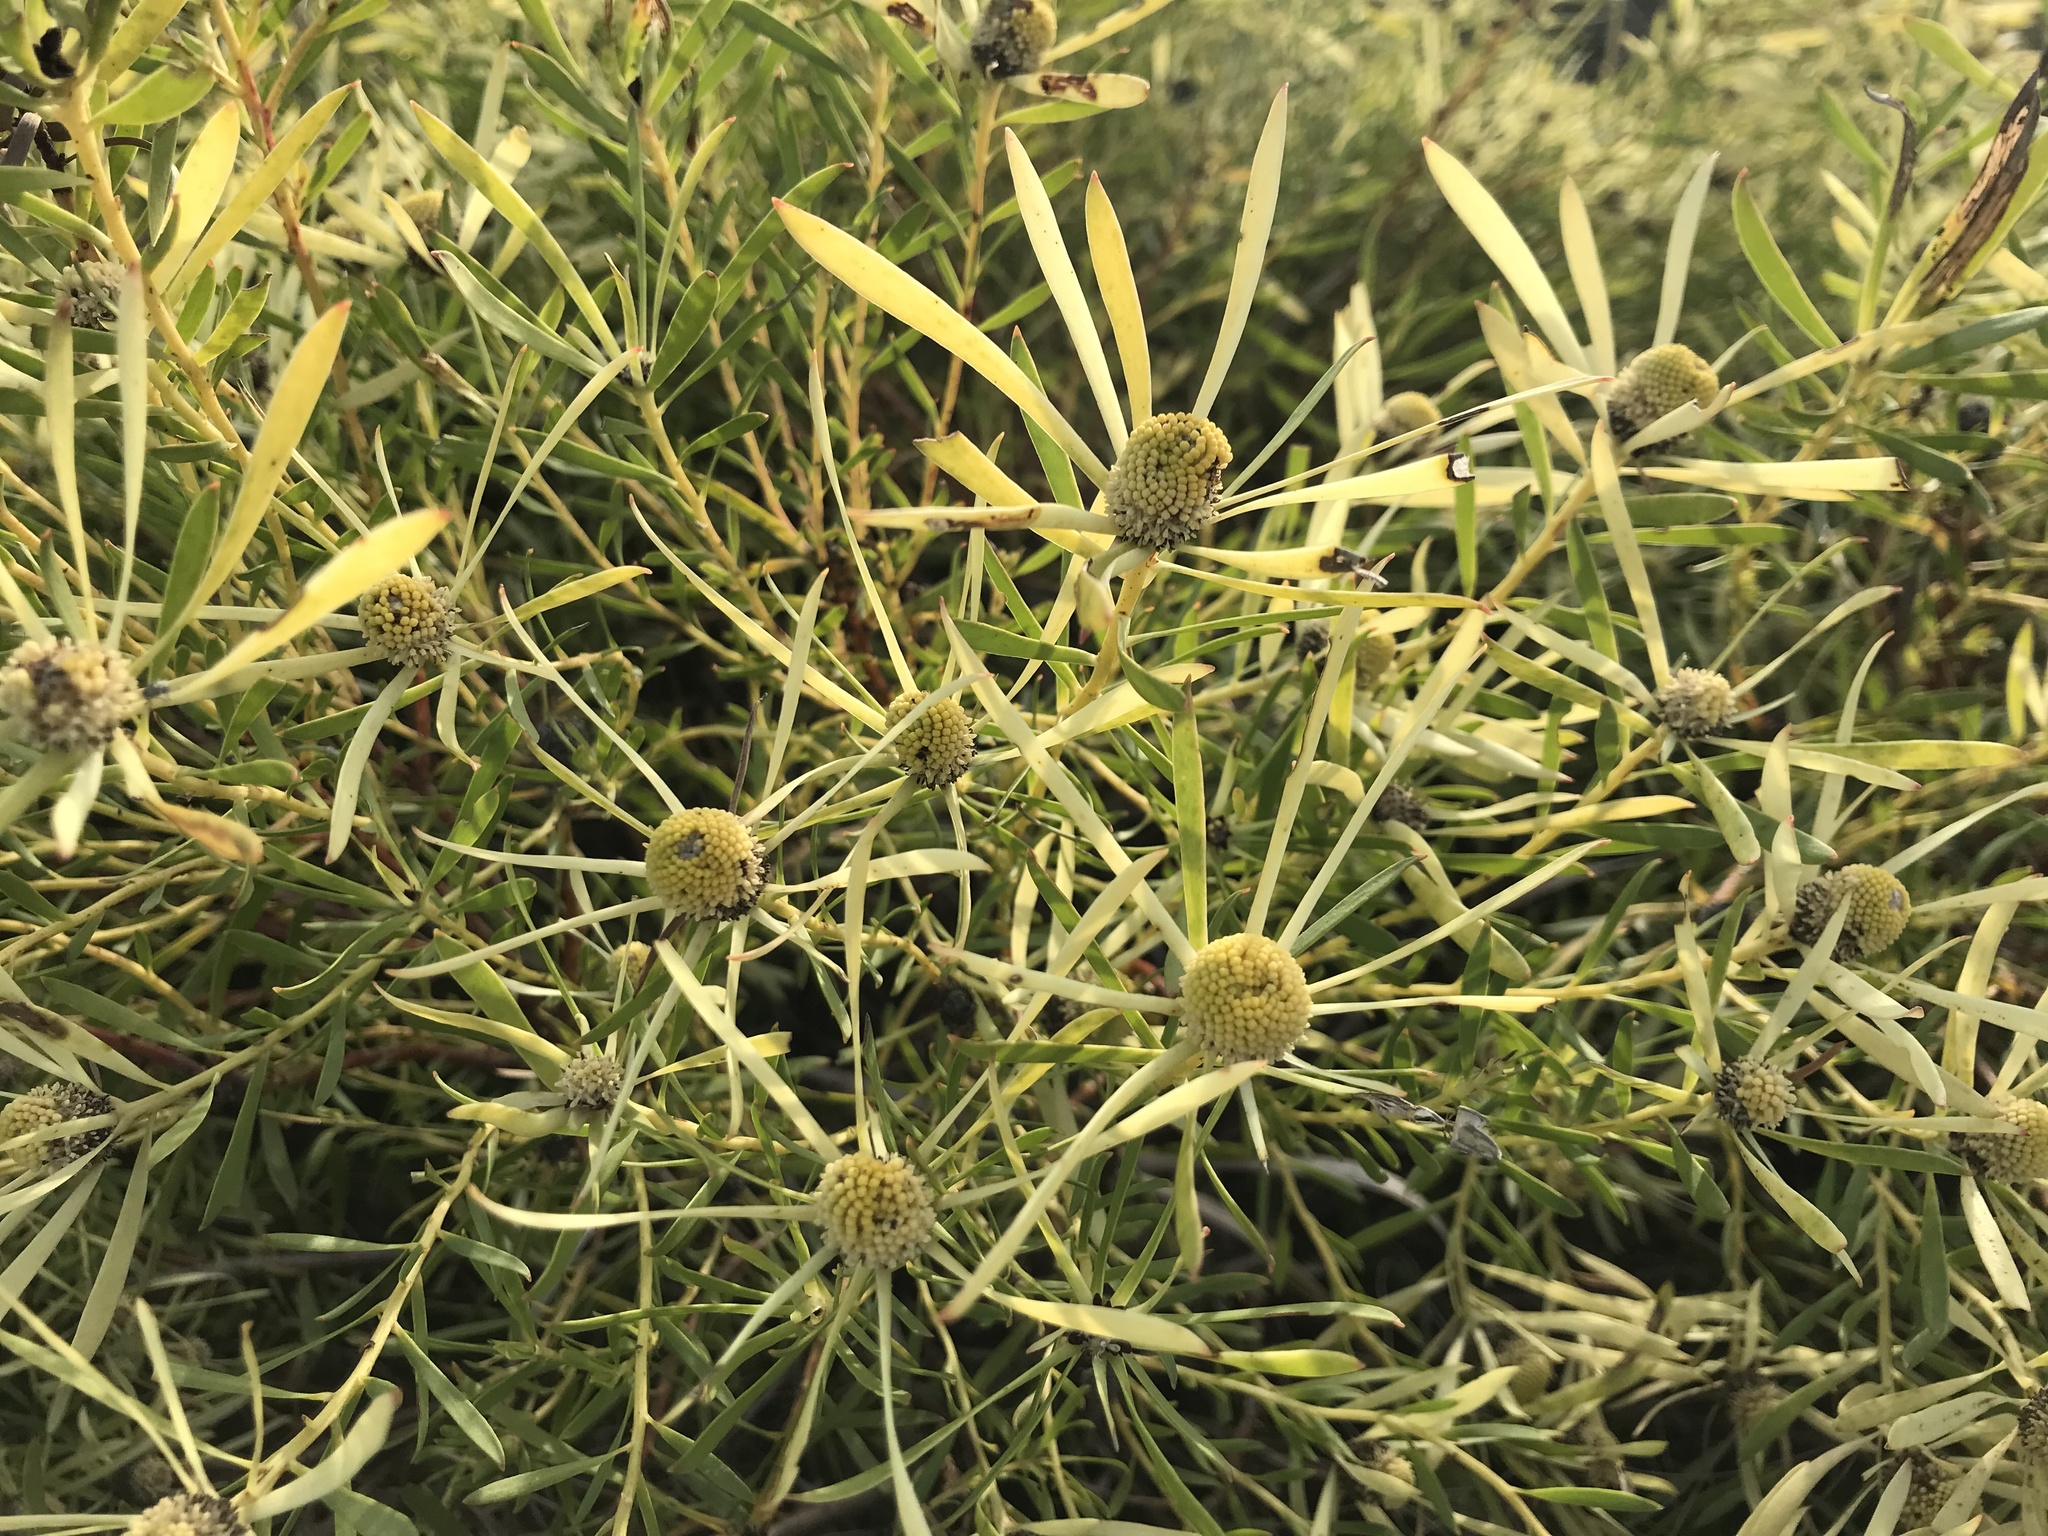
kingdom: Plantae
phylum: Tracheophyta
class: Magnoliopsida
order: Proteales
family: Proteaceae
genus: Leucadendron
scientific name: Leucadendron salignum
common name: Common sunshine conebush
